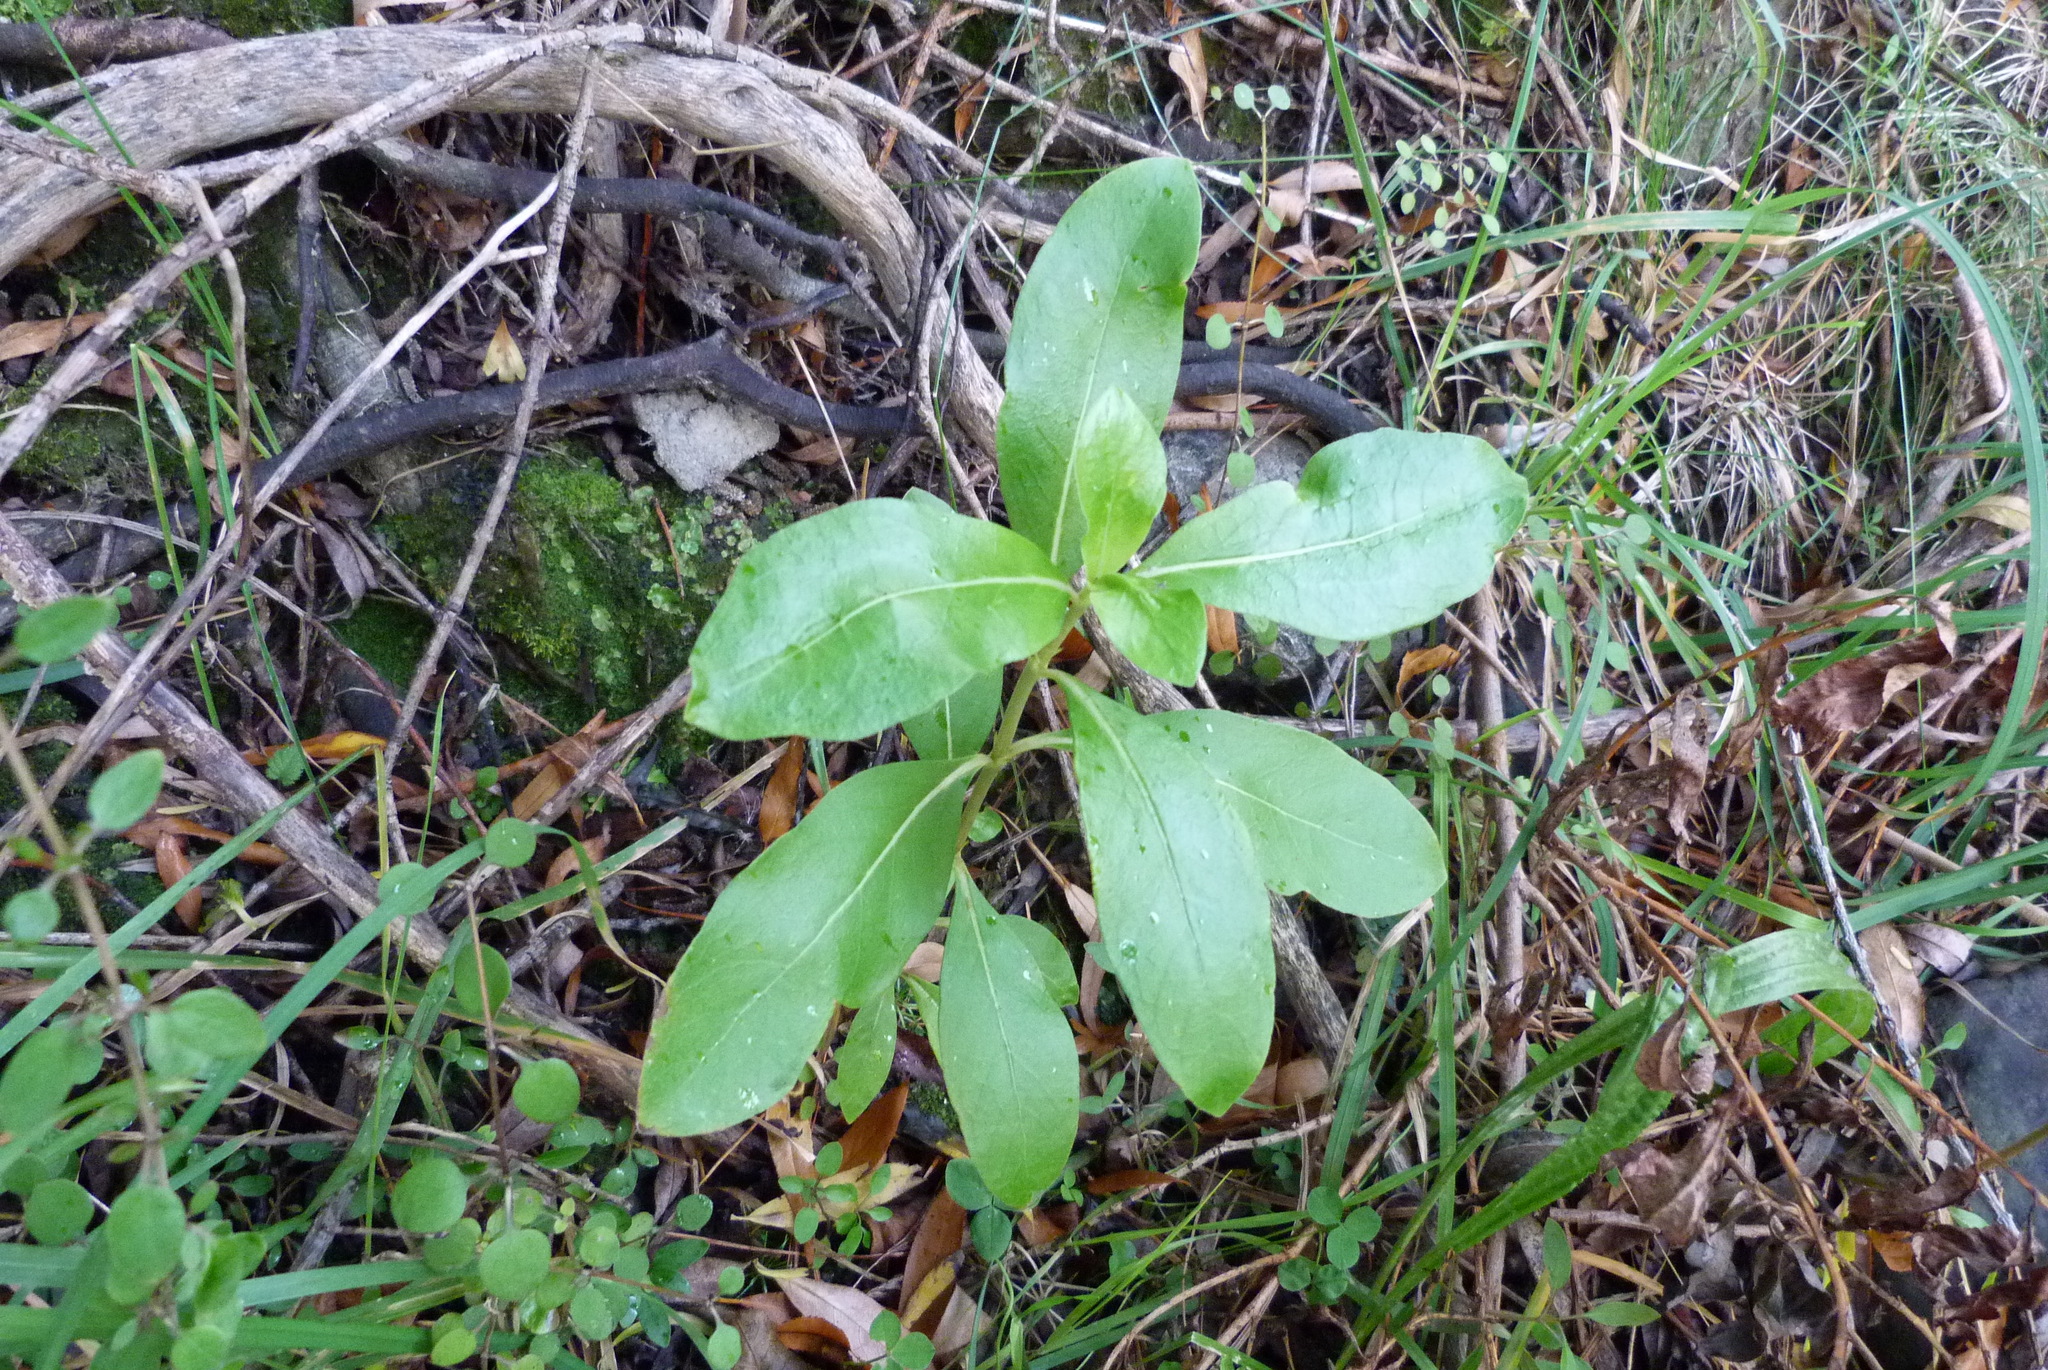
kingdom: Plantae
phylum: Tracheophyta
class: Magnoliopsida
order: Gentianales
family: Rubiaceae
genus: Coprosma
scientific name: Coprosma robusta
